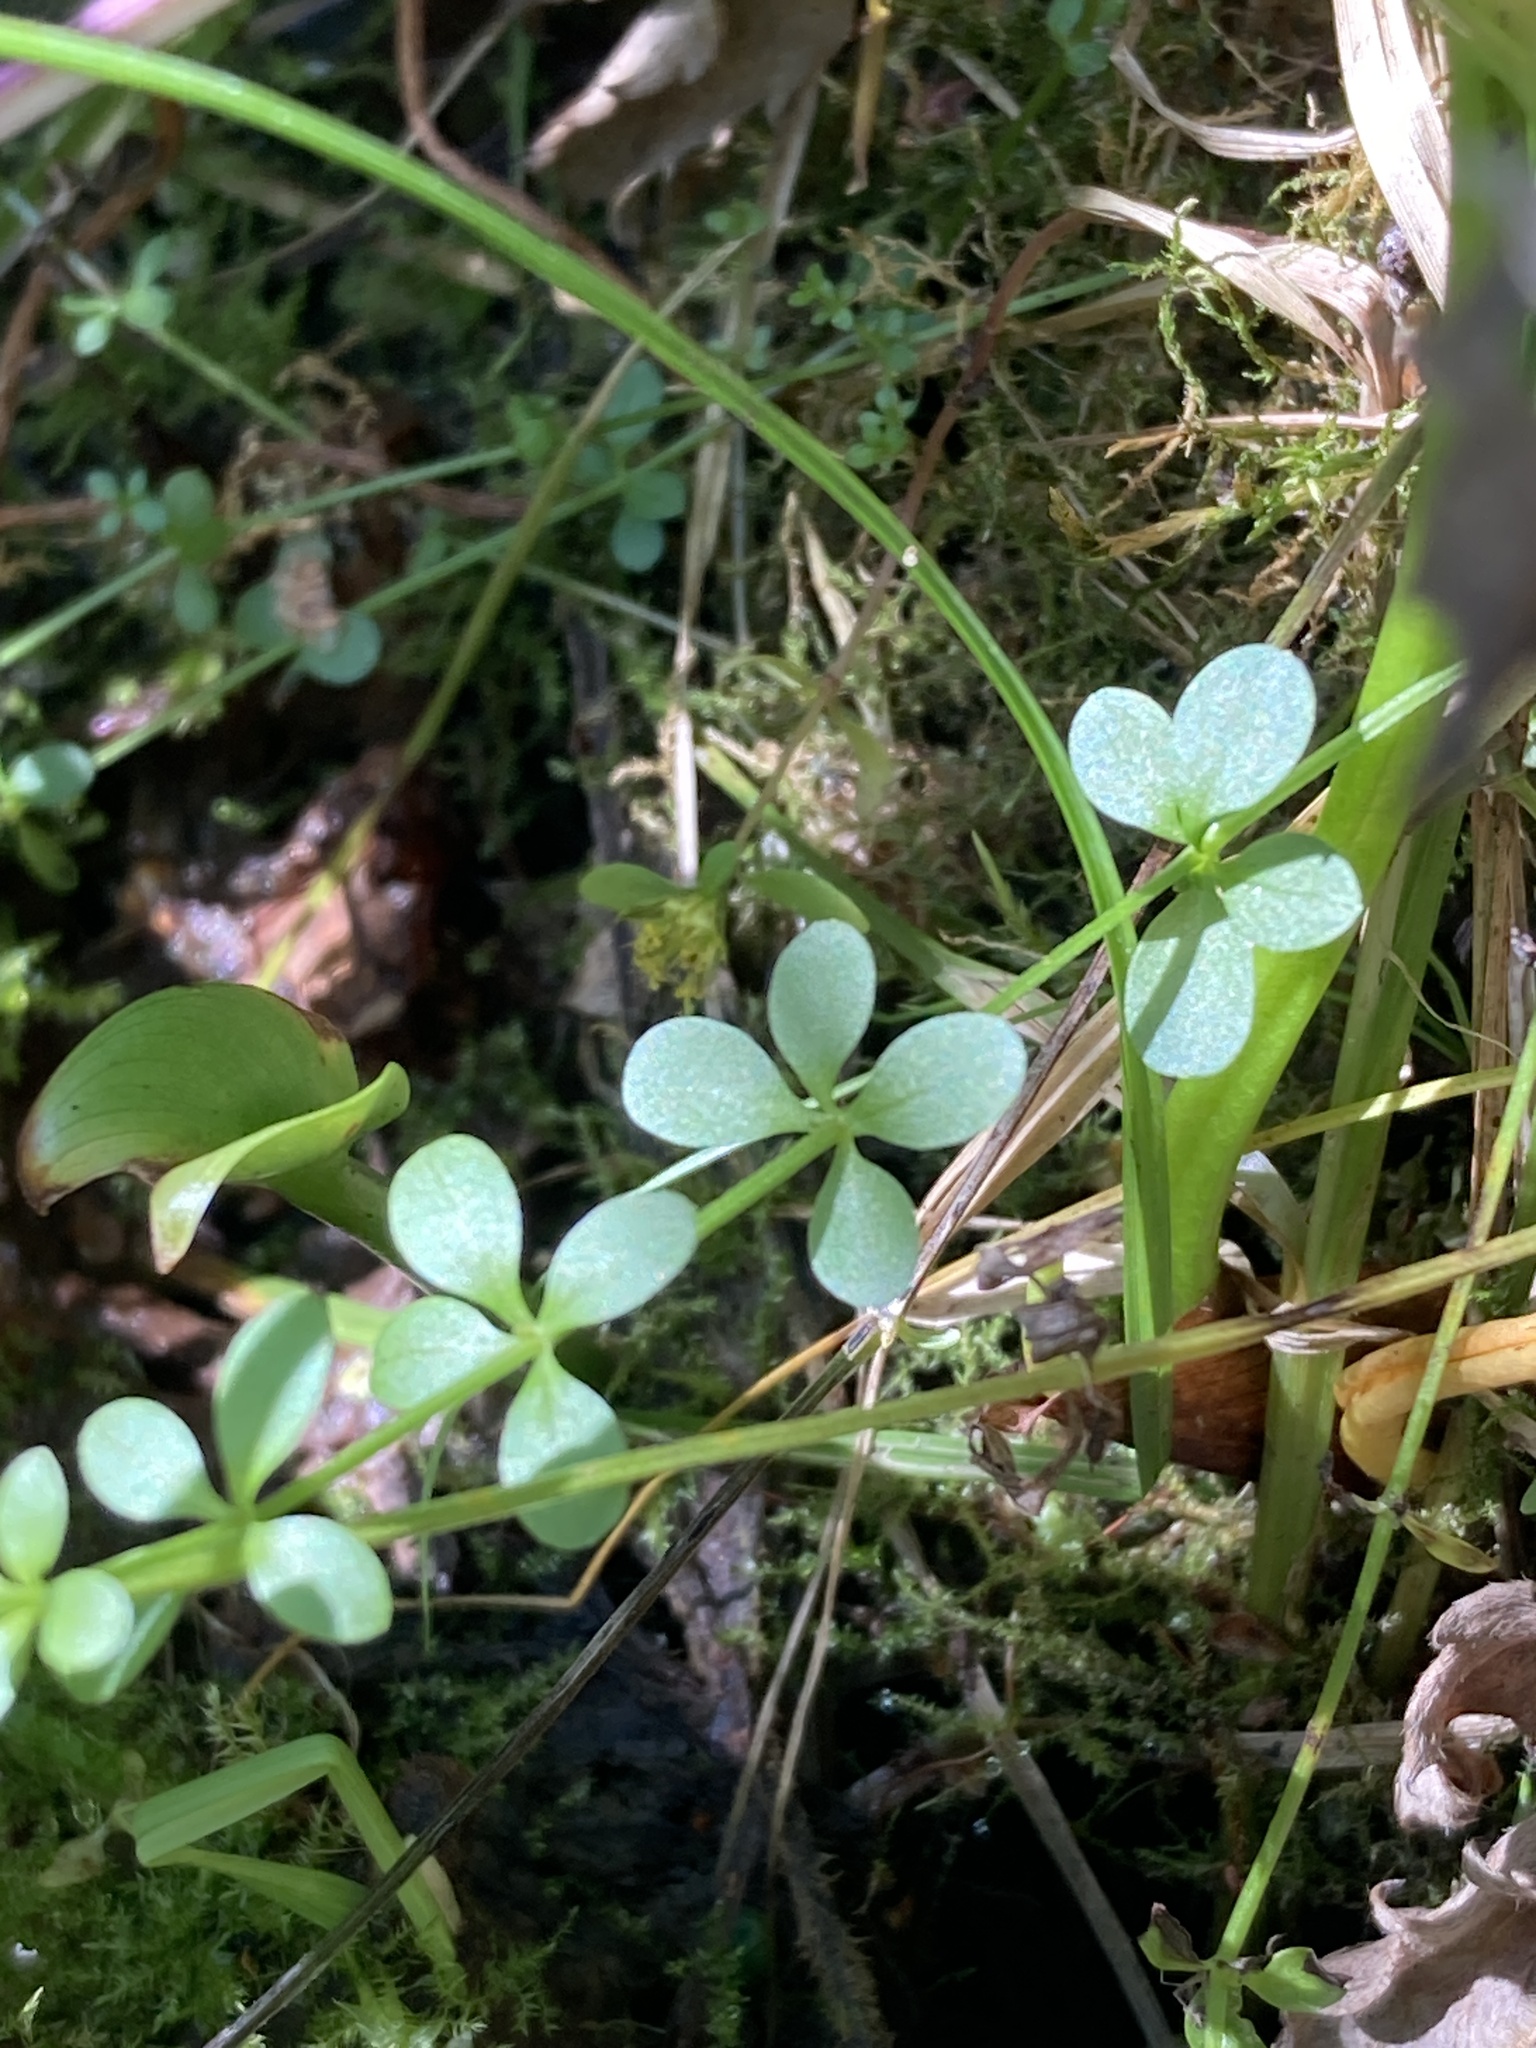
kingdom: Plantae
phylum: Tracheophyta
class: Magnoliopsida
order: Gentianales
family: Rubiaceae
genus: Galium
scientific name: Galium palustre
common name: Common marsh-bedstraw
